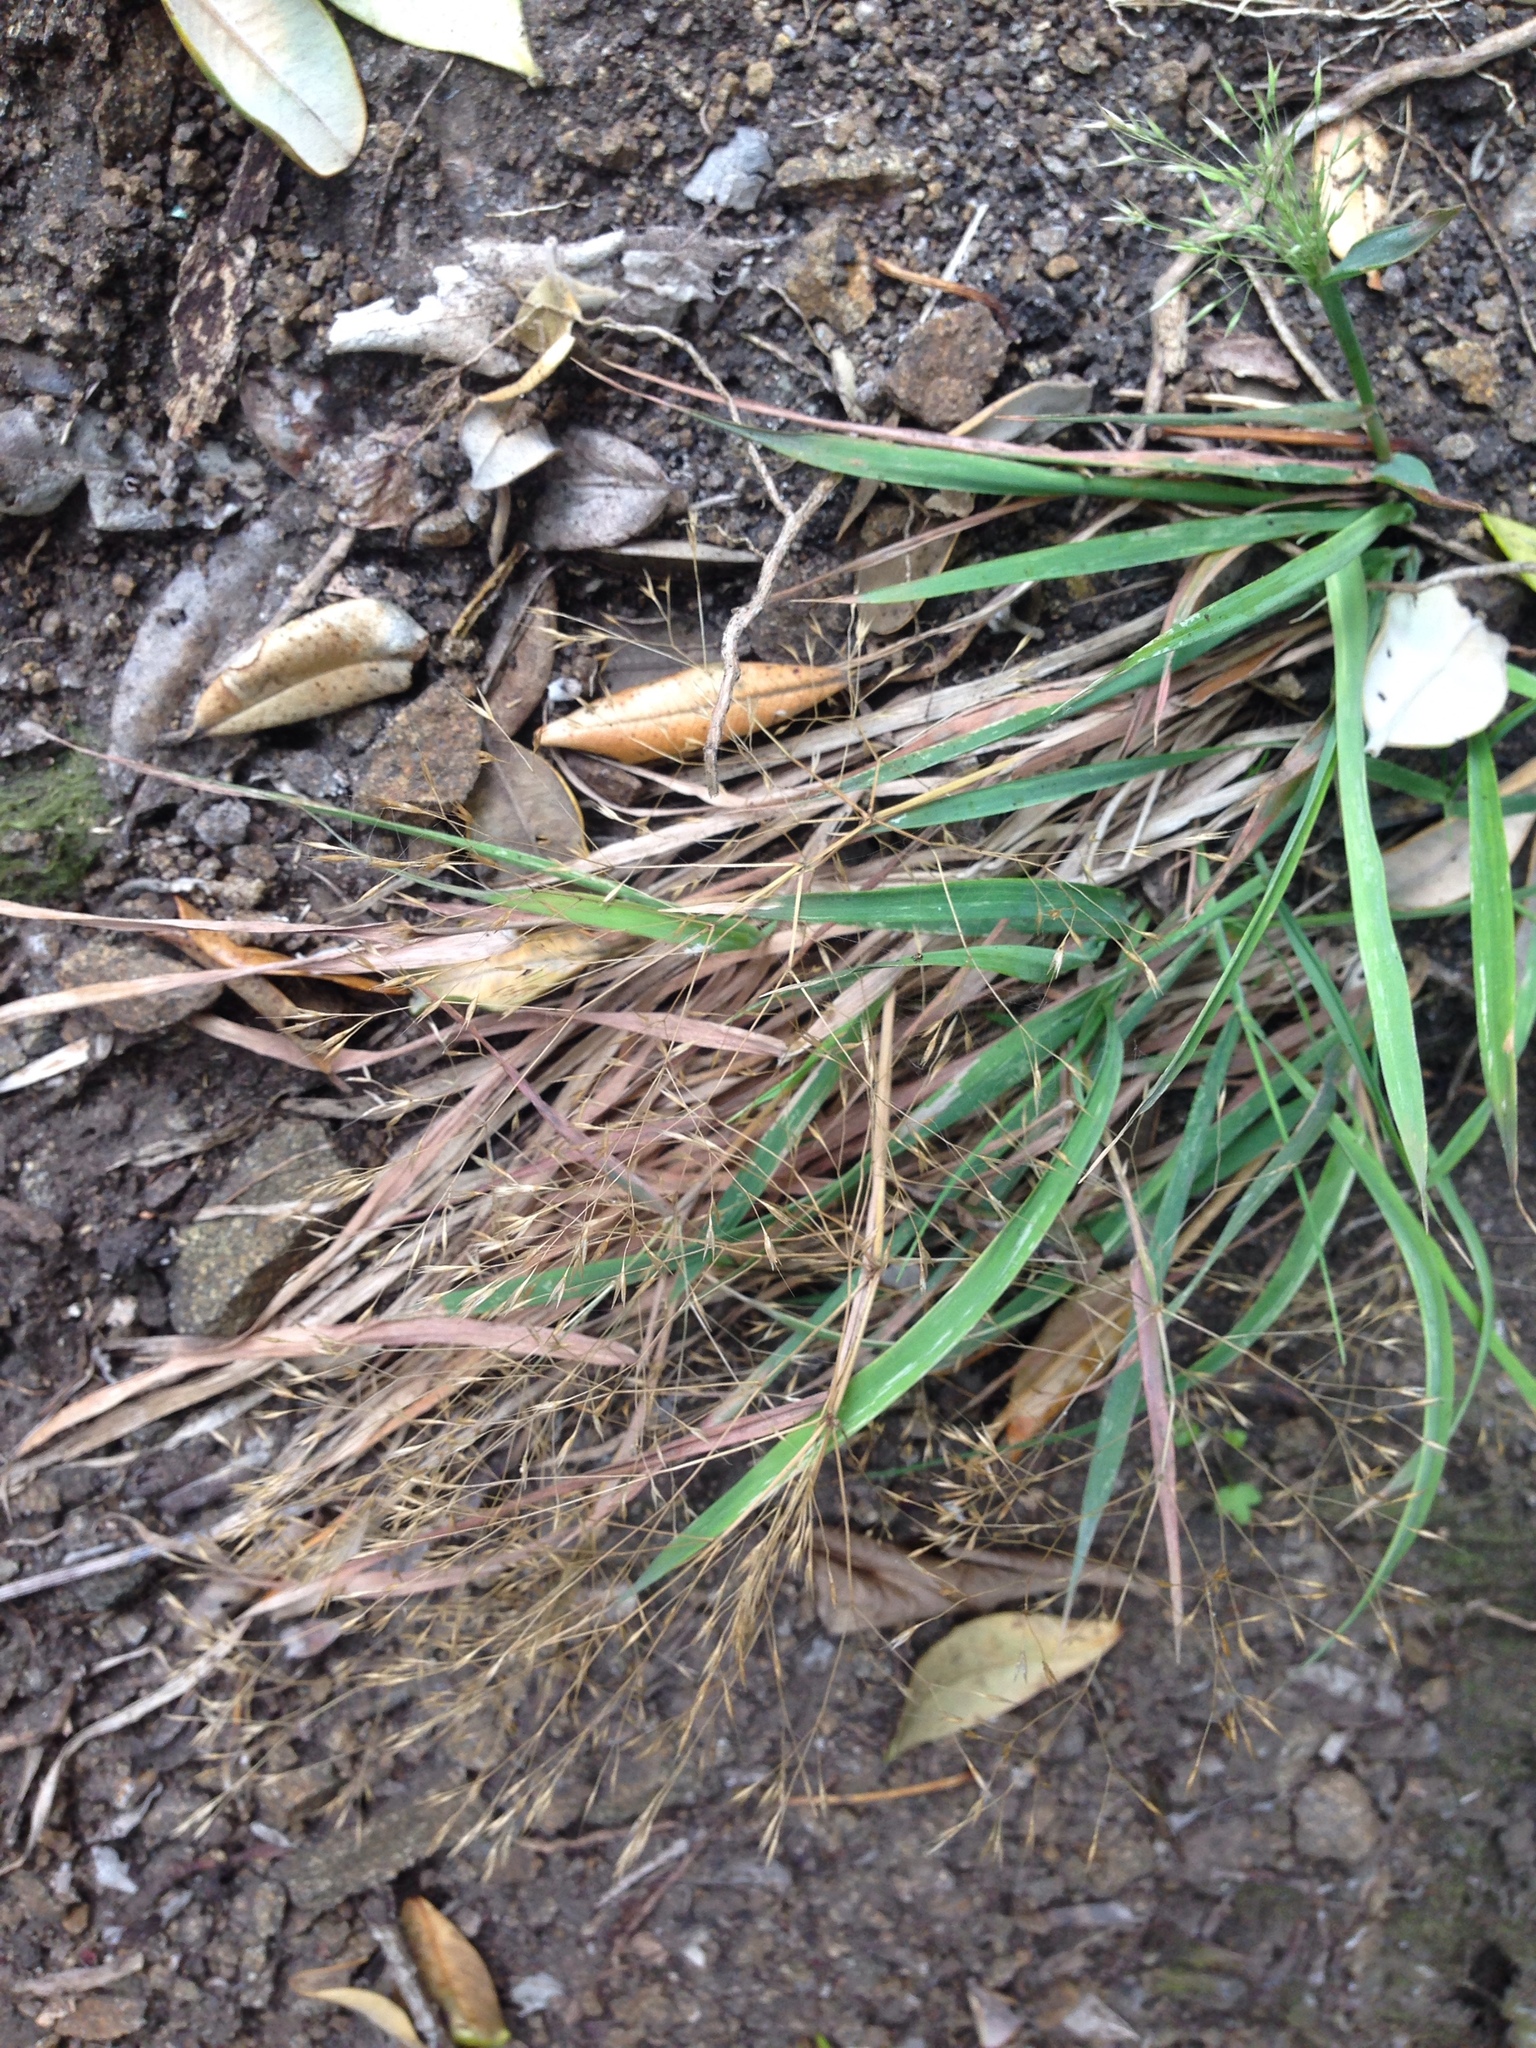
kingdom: Plantae
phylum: Tracheophyta
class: Liliopsida
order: Poales
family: Poaceae
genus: Lachnagrostis
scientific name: Lachnagrostis billardierei
